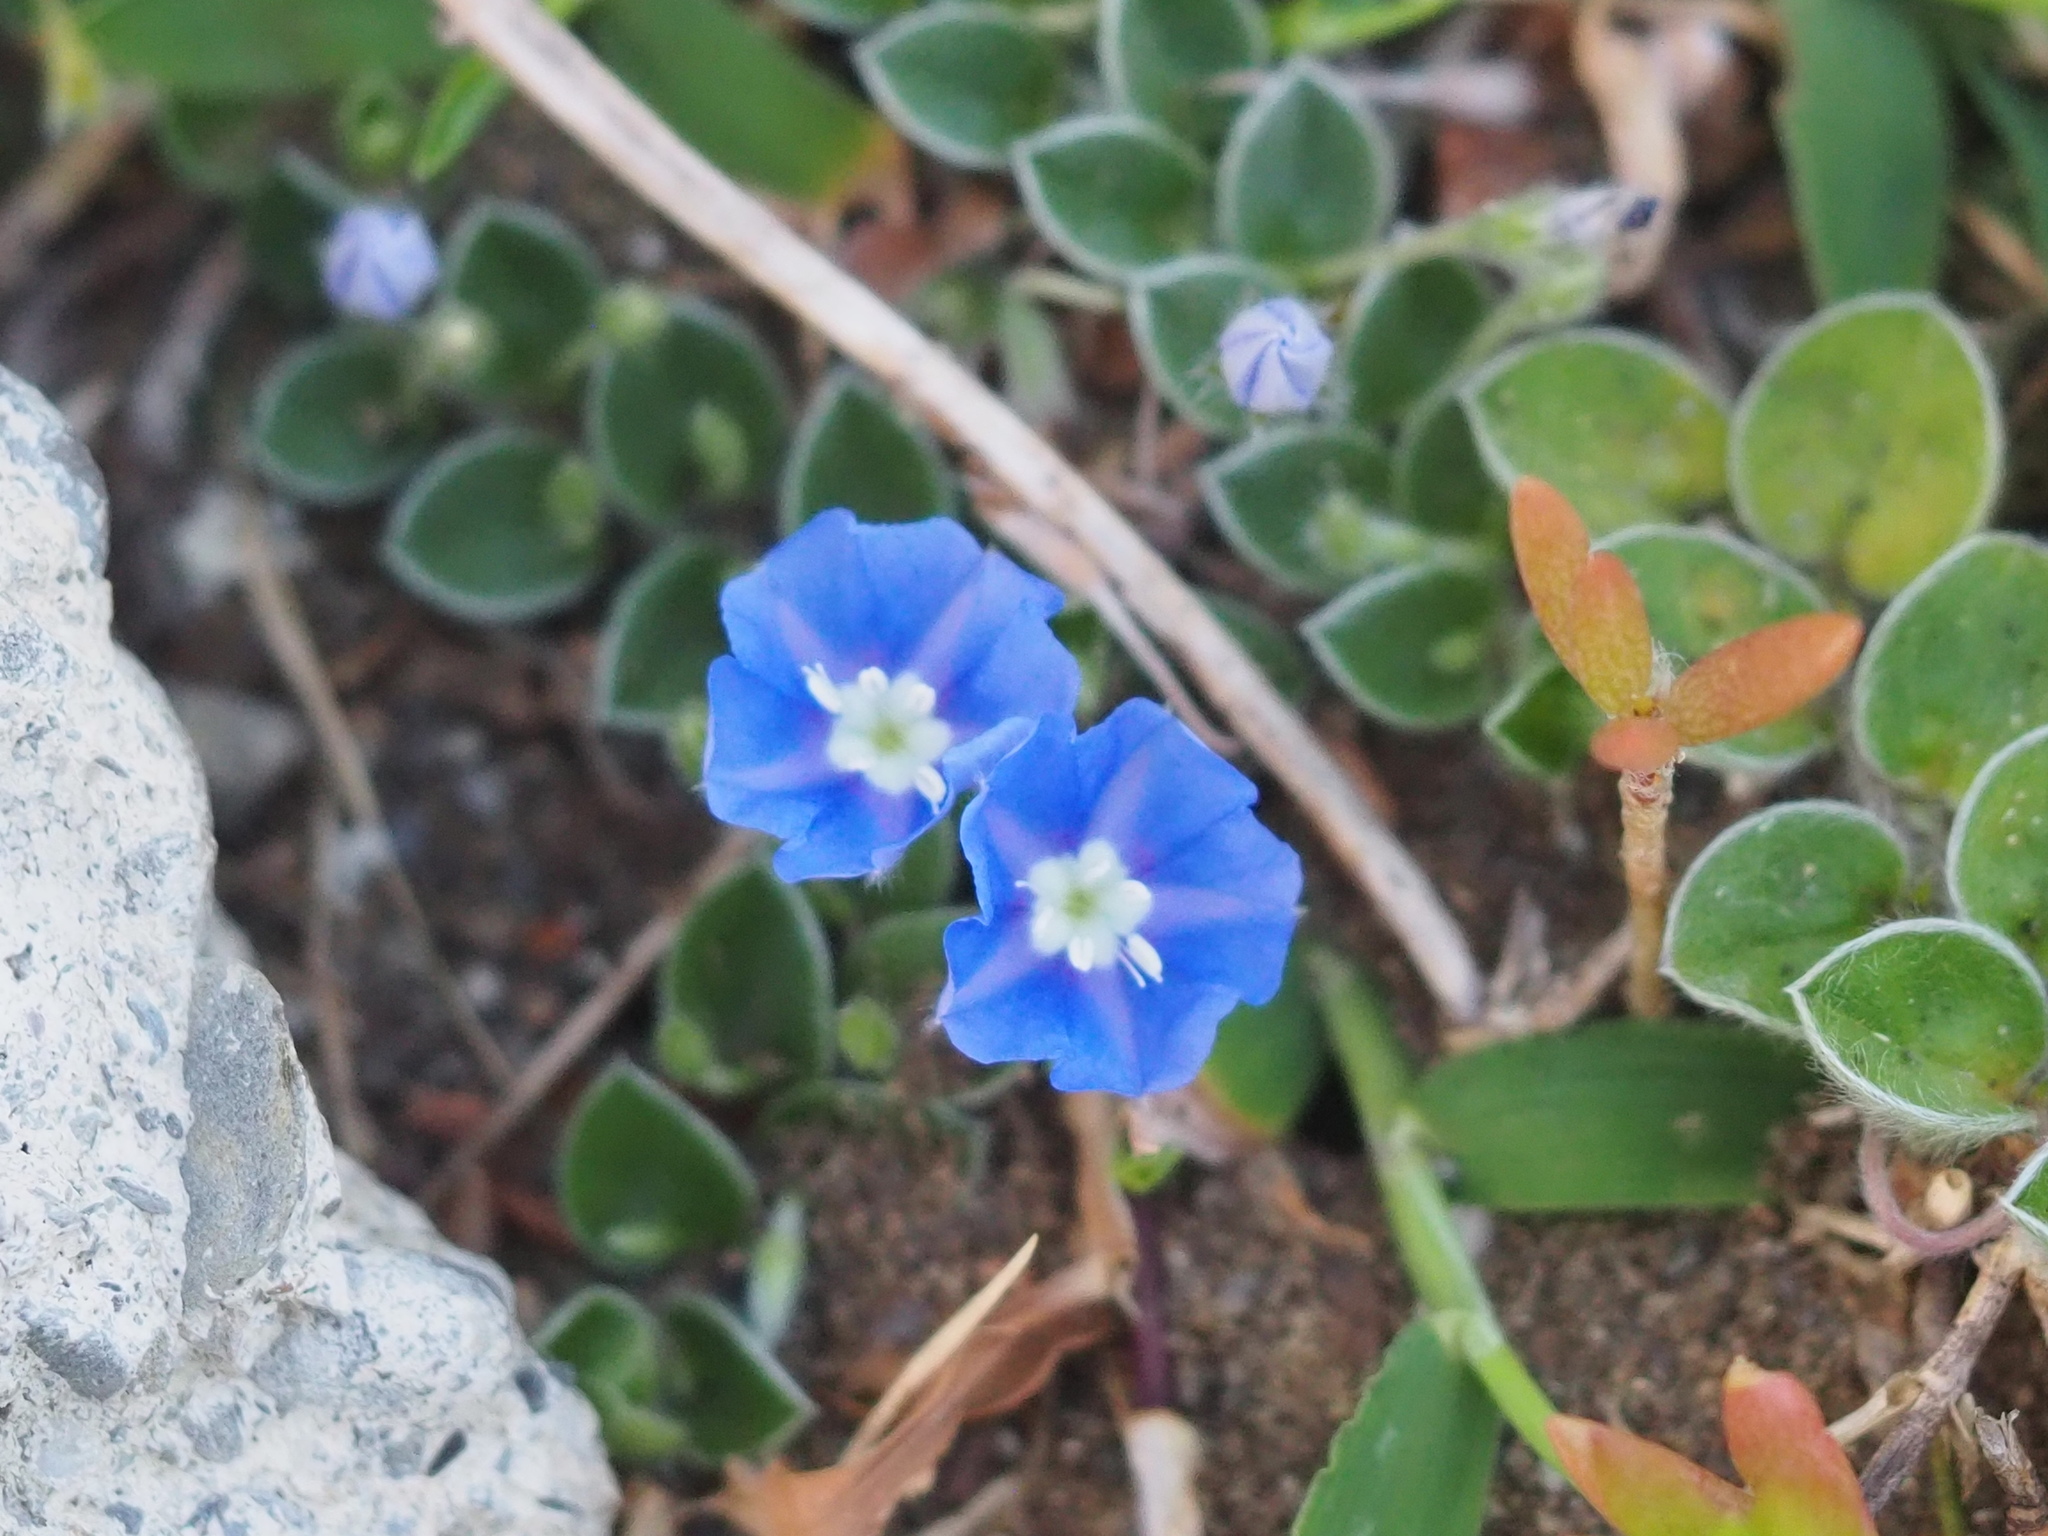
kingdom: Plantae
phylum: Tracheophyta
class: Magnoliopsida
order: Solanales
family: Convolvulaceae
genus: Evolvulus
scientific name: Evolvulus alsinoides
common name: Slender dwarf morning-glory
